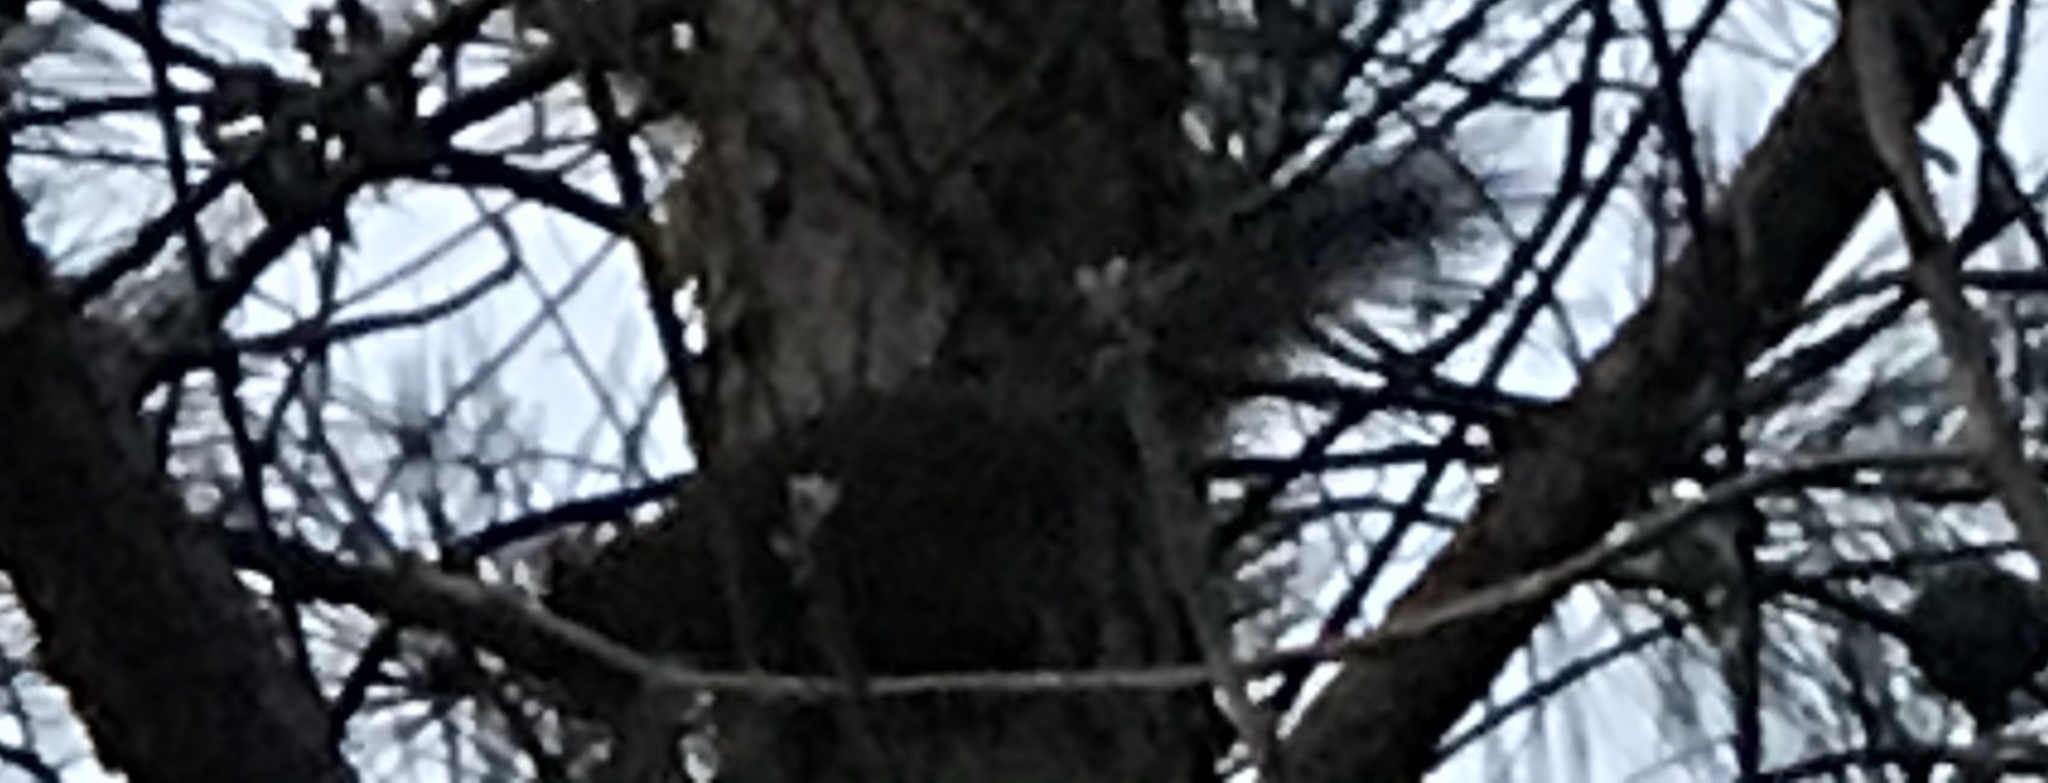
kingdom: Animalia
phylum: Chordata
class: Mammalia
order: Rodentia
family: Sciuridae
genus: Sciurus
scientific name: Sciurus carolinensis
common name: Eastern gray squirrel
